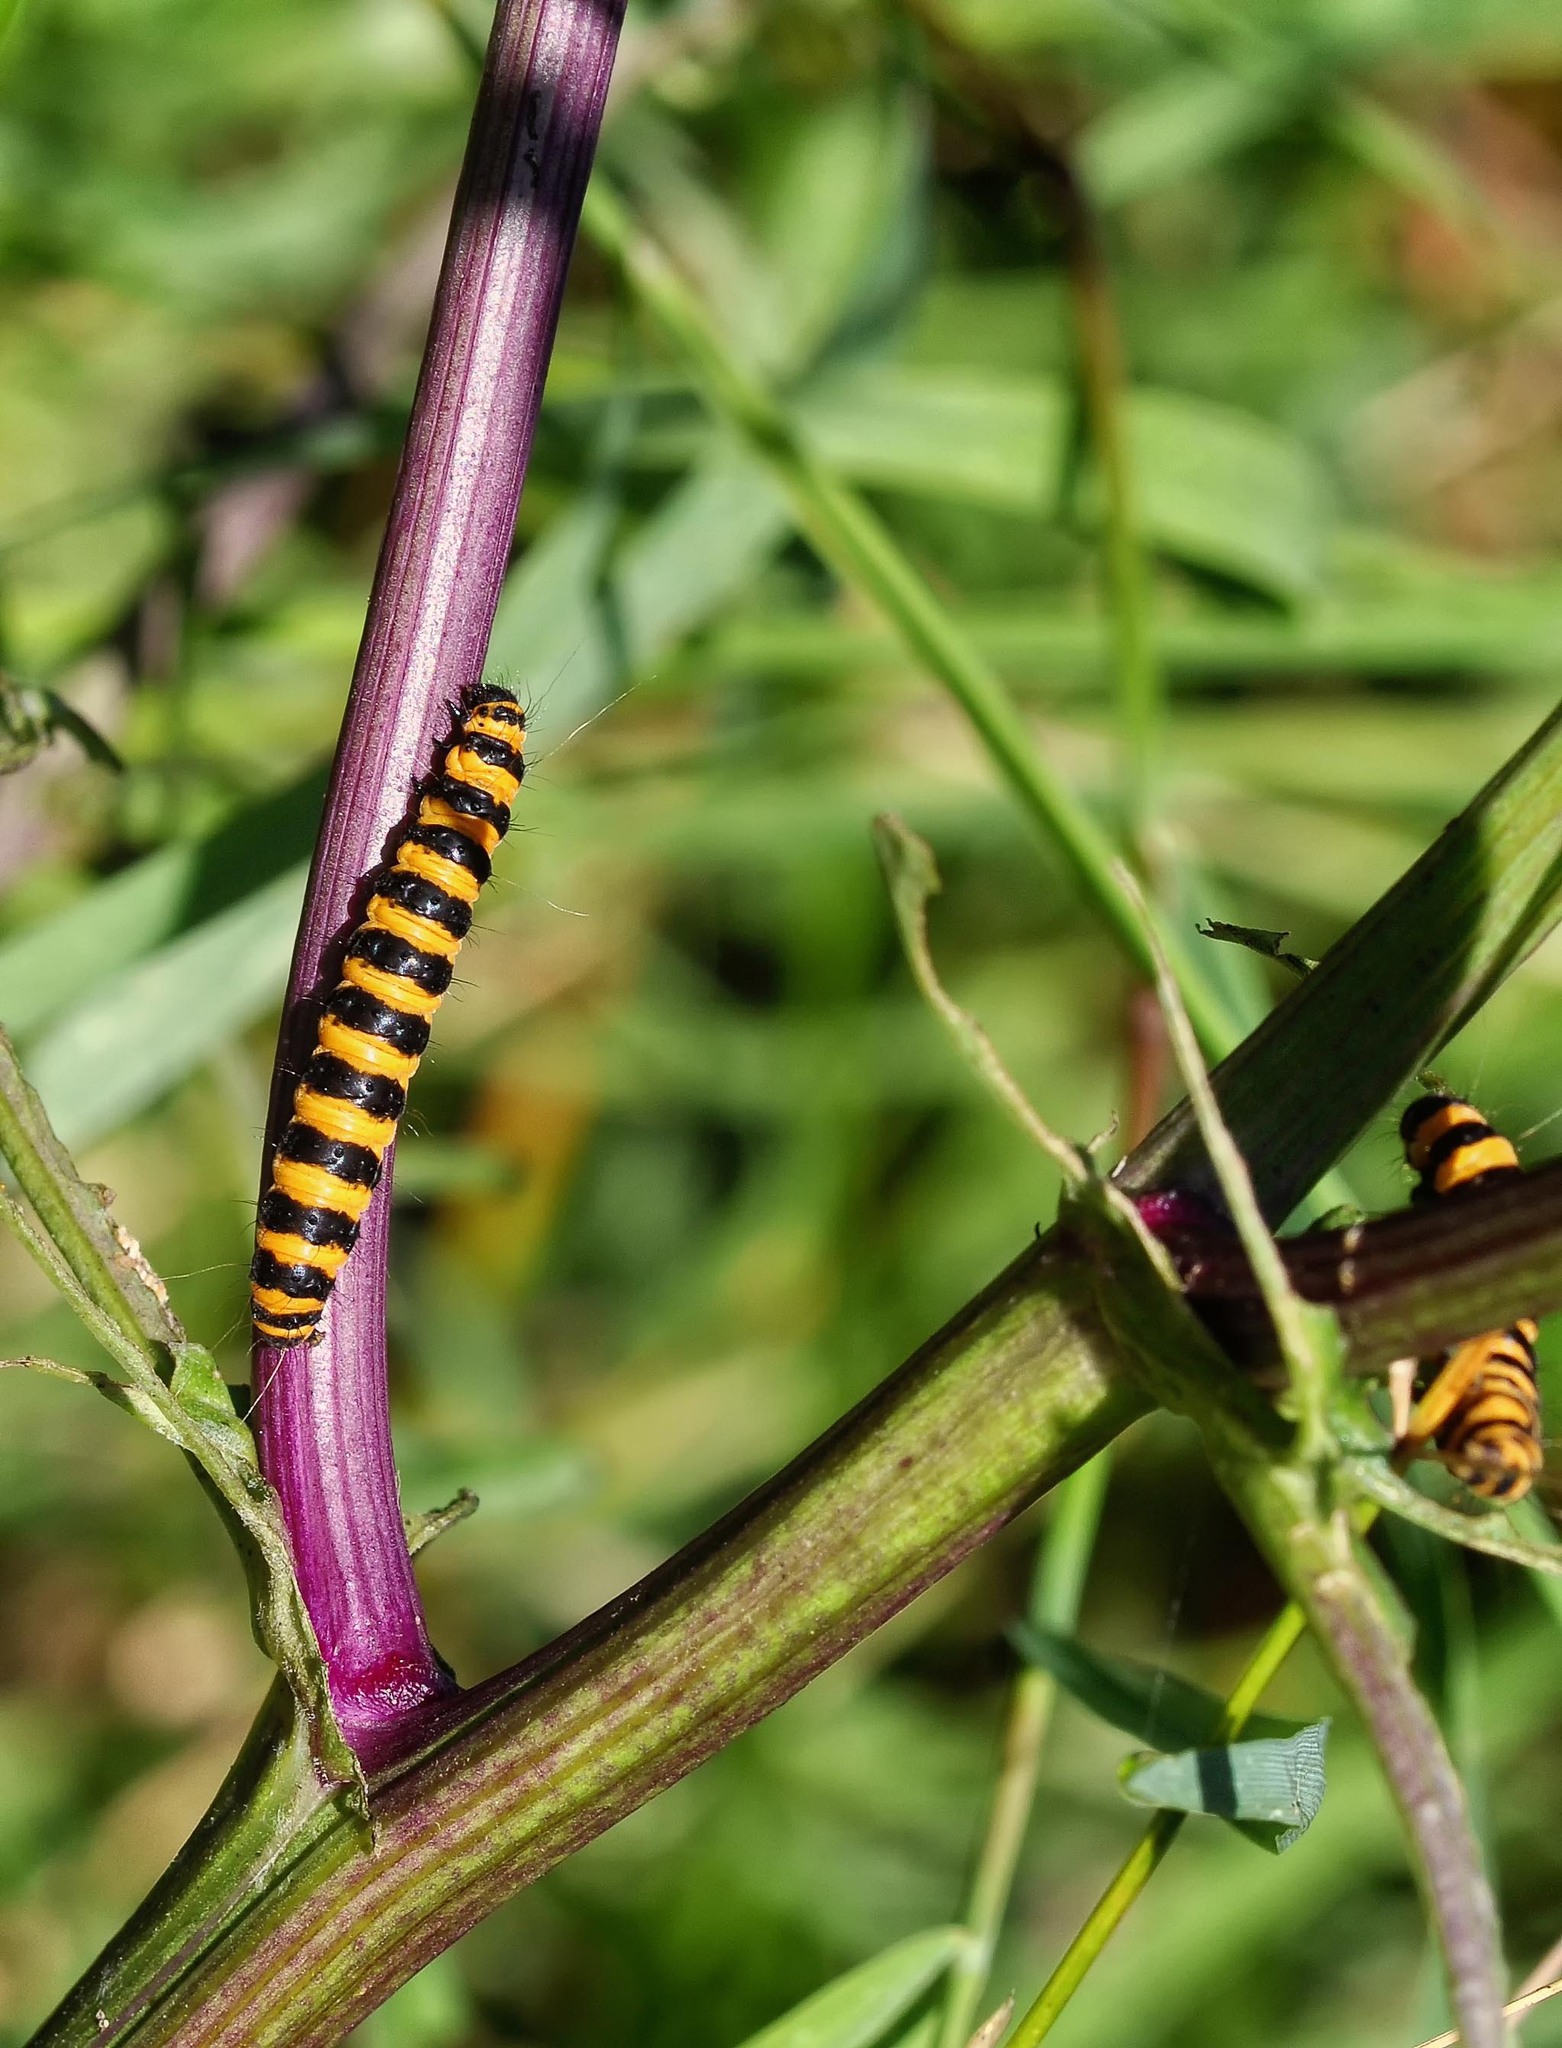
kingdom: Animalia
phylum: Arthropoda
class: Insecta
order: Lepidoptera
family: Erebidae
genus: Tyria
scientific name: Tyria jacobaeae
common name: Cinnabar
